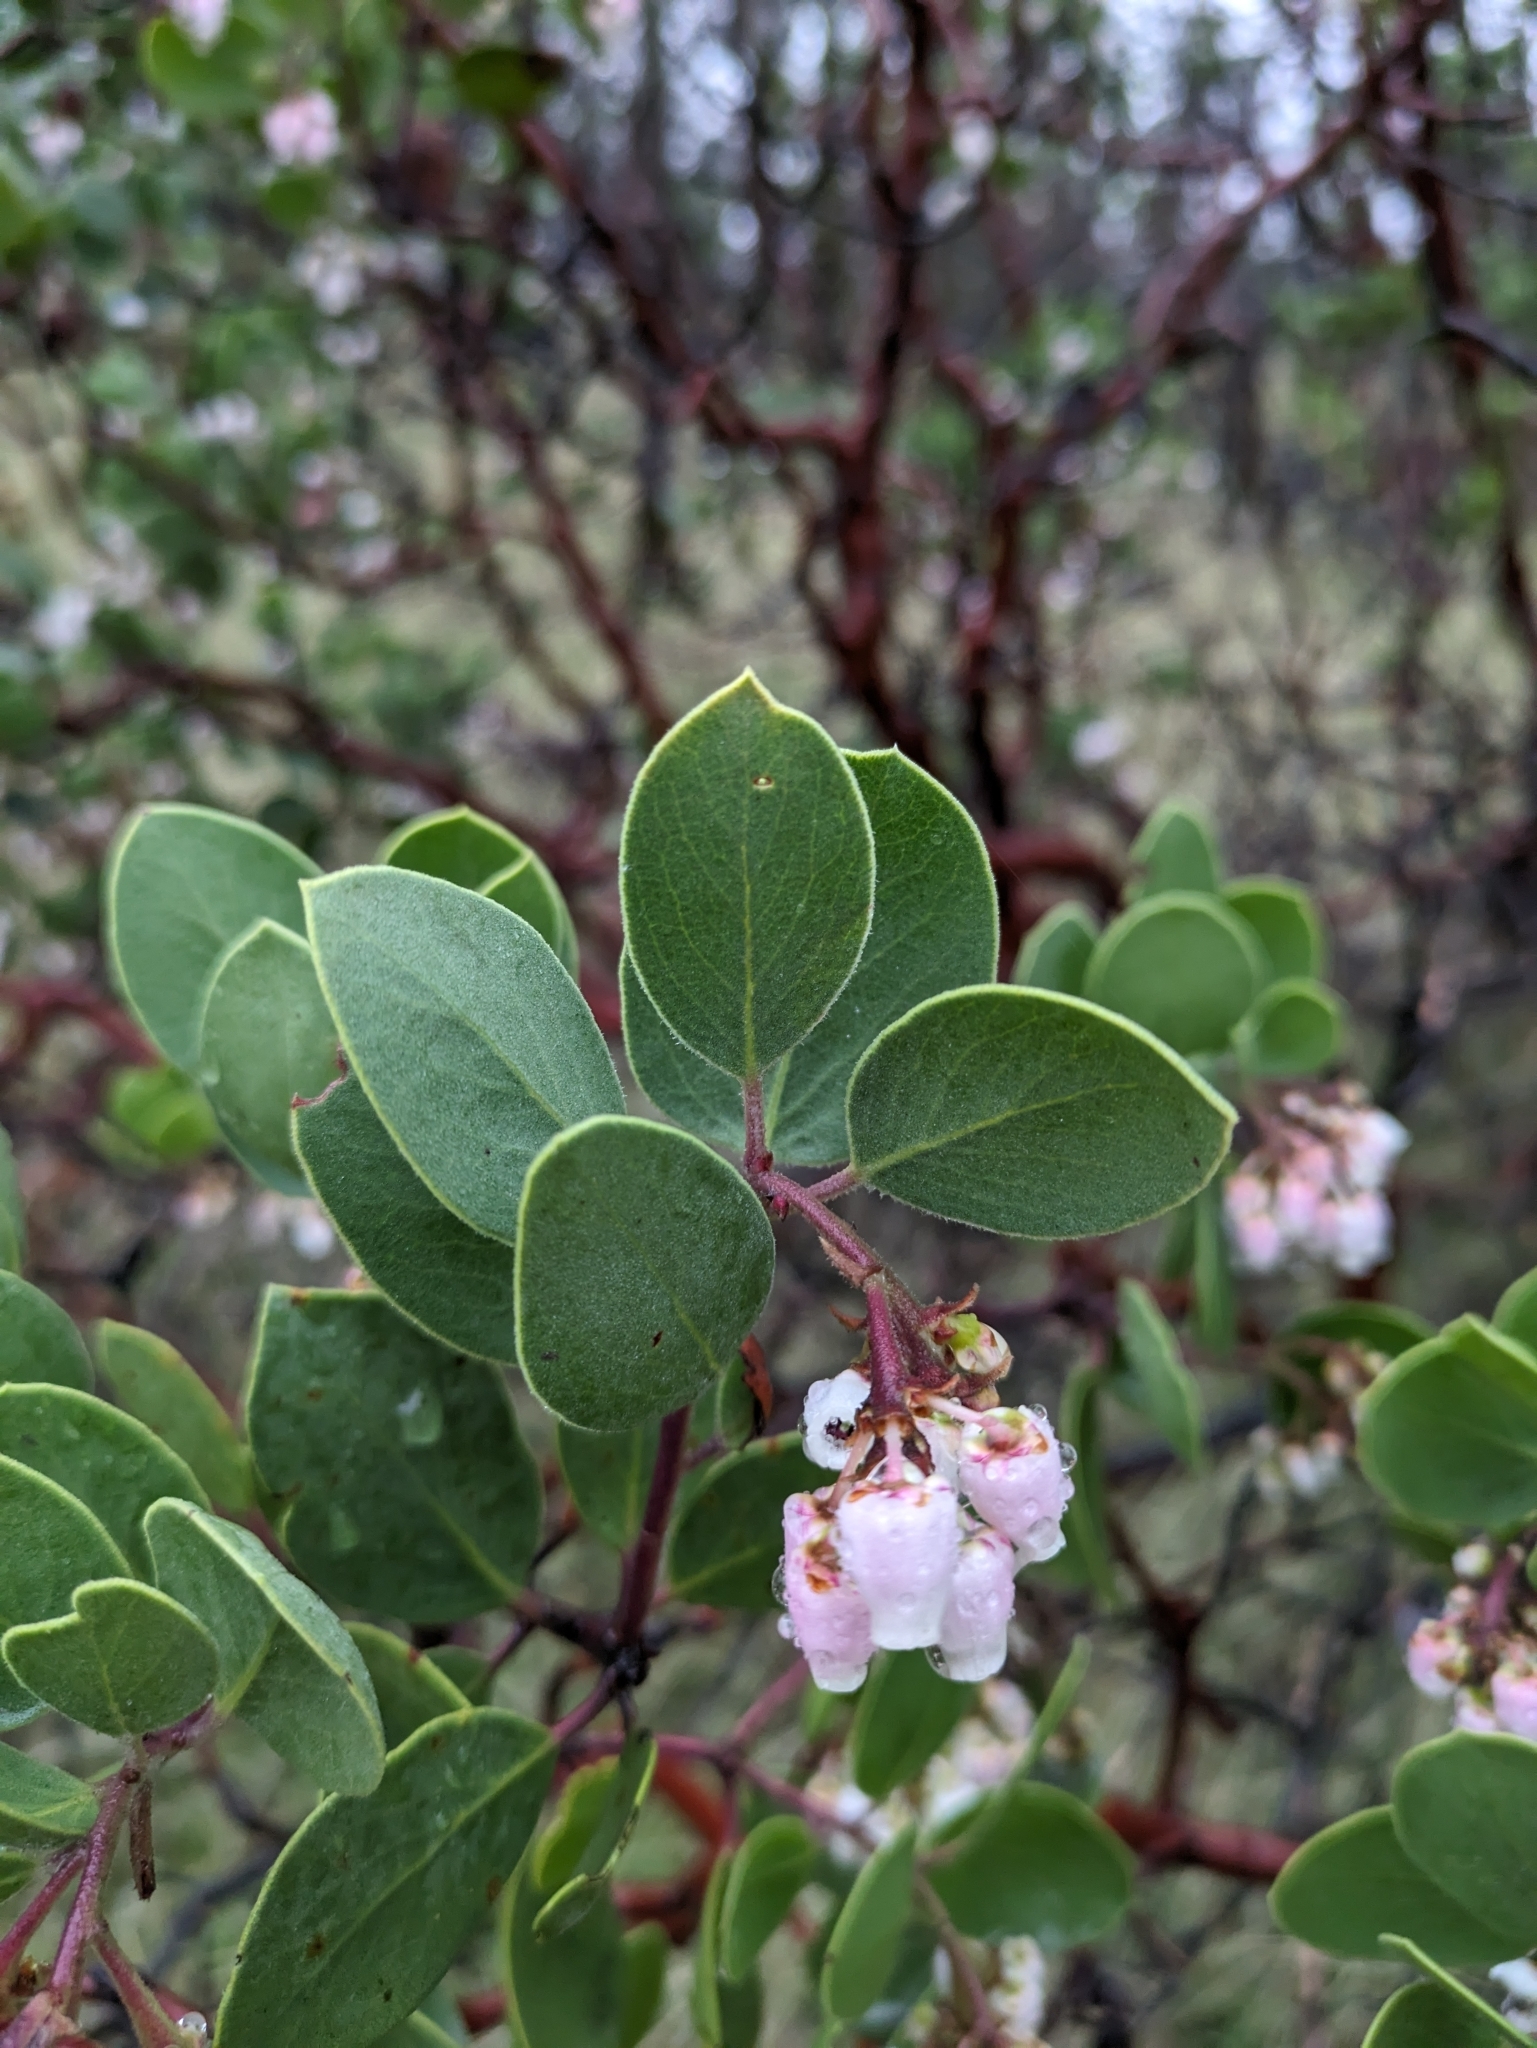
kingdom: Plantae
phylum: Tracheophyta
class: Magnoliopsida
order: Ericales
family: Ericaceae
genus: Arctostaphylos
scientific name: Arctostaphylos manzanita
